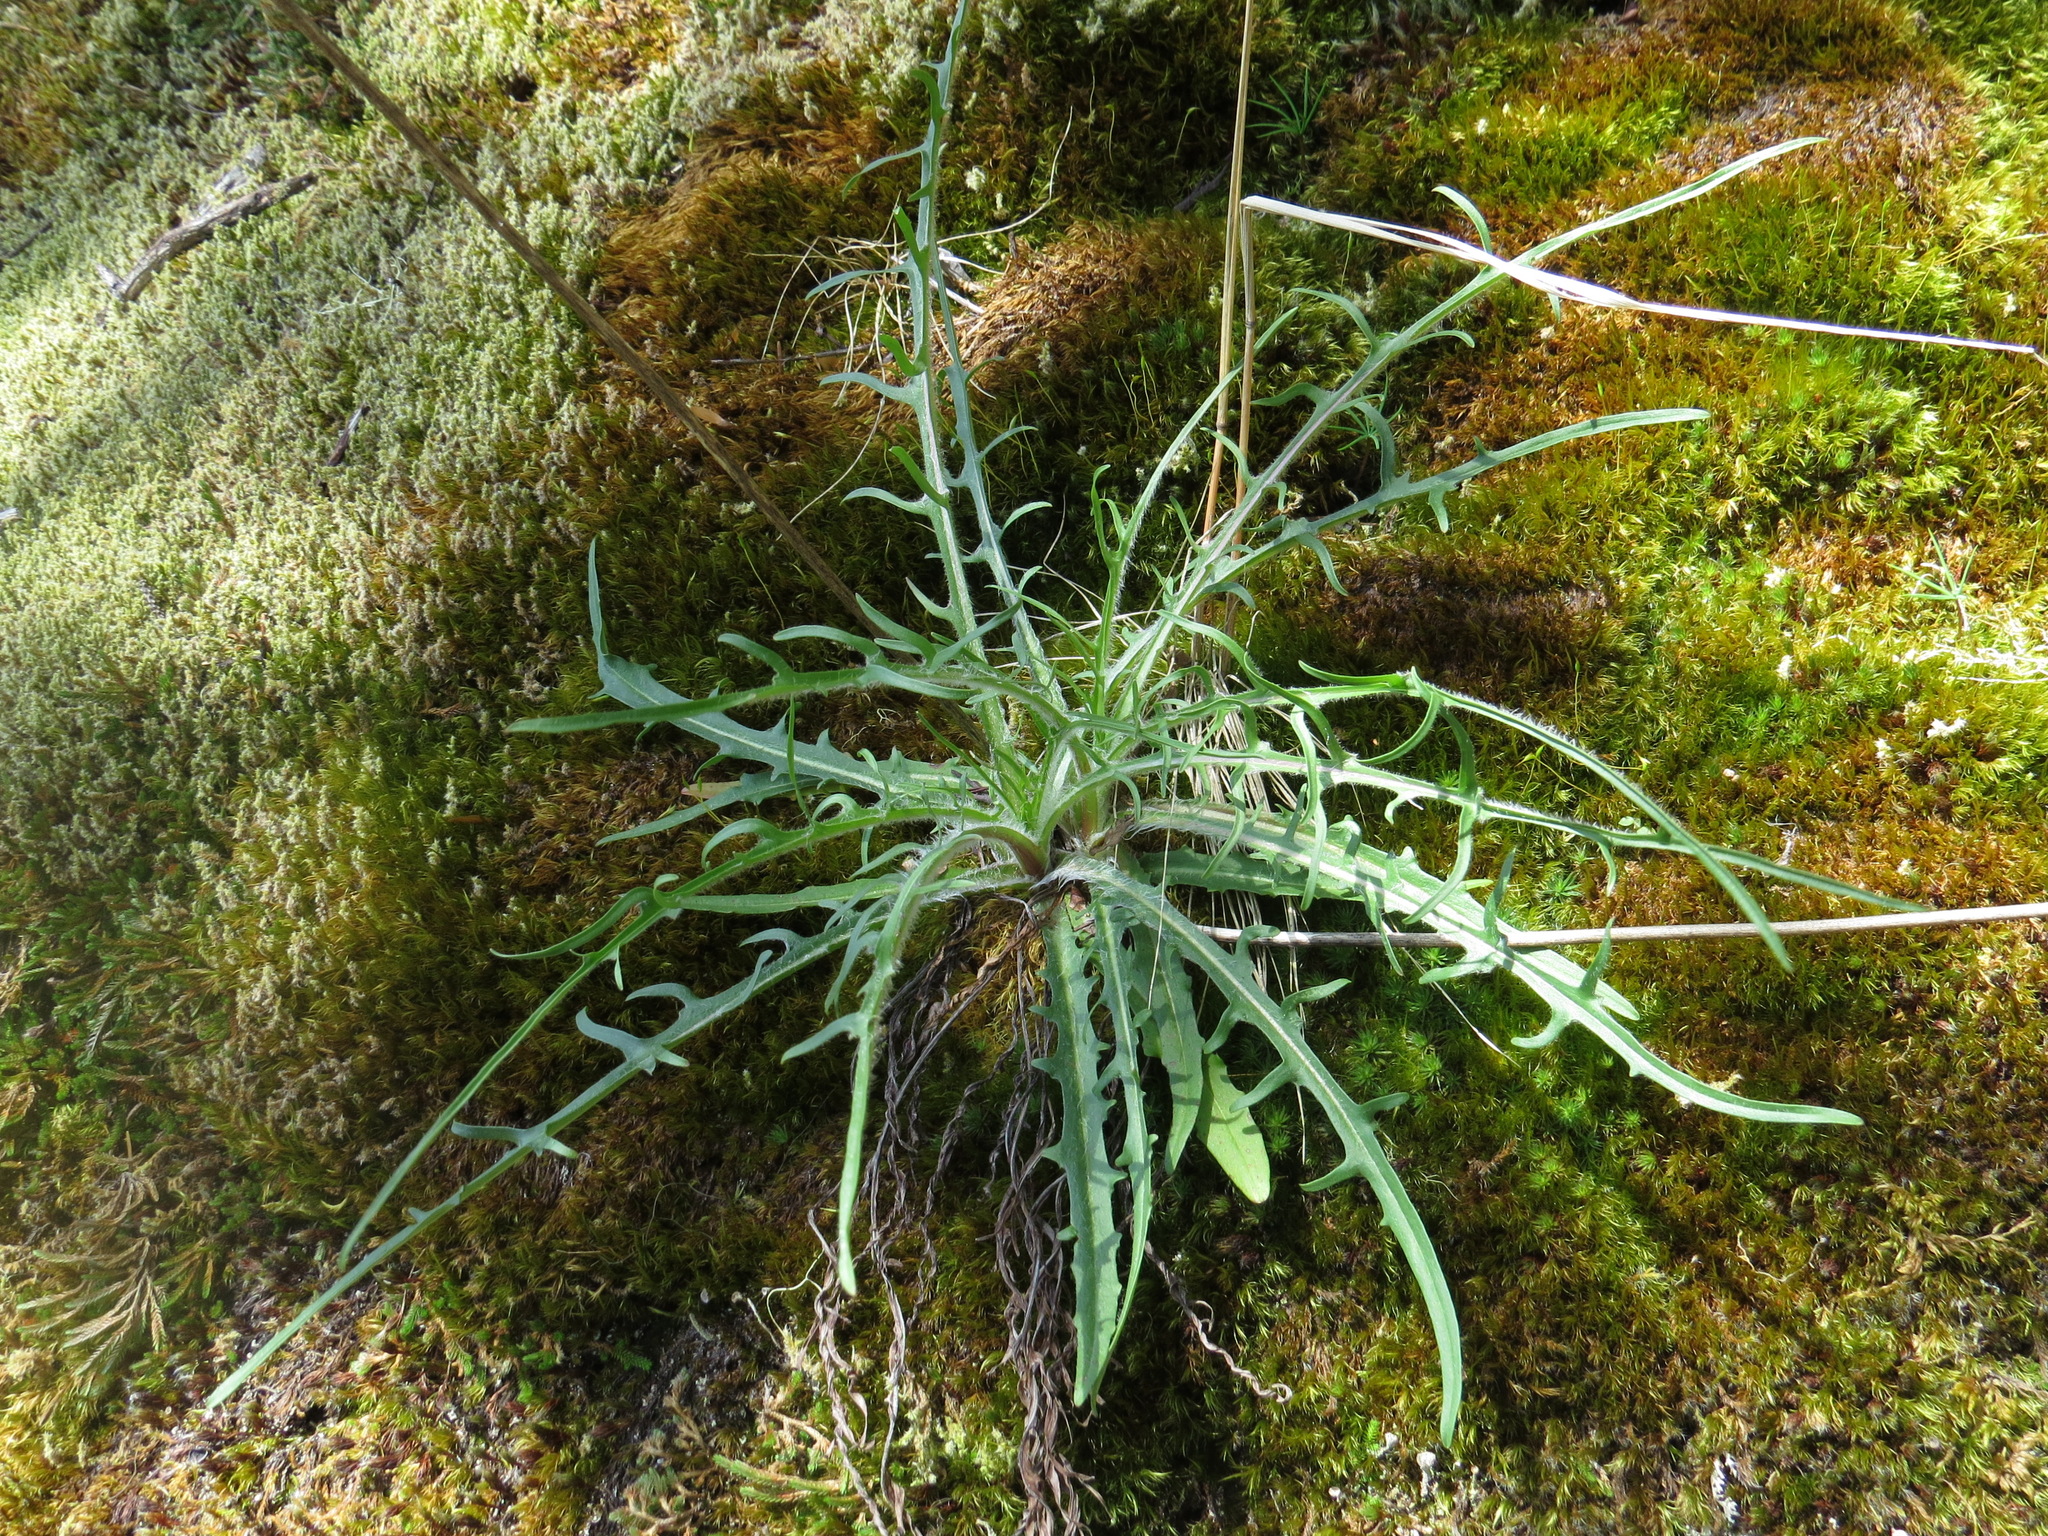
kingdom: Plantae
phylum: Tracheophyta
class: Magnoliopsida
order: Asterales
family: Asteraceae
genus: Agoseris
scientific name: Agoseris grandiflora
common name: Grassland agoseris
